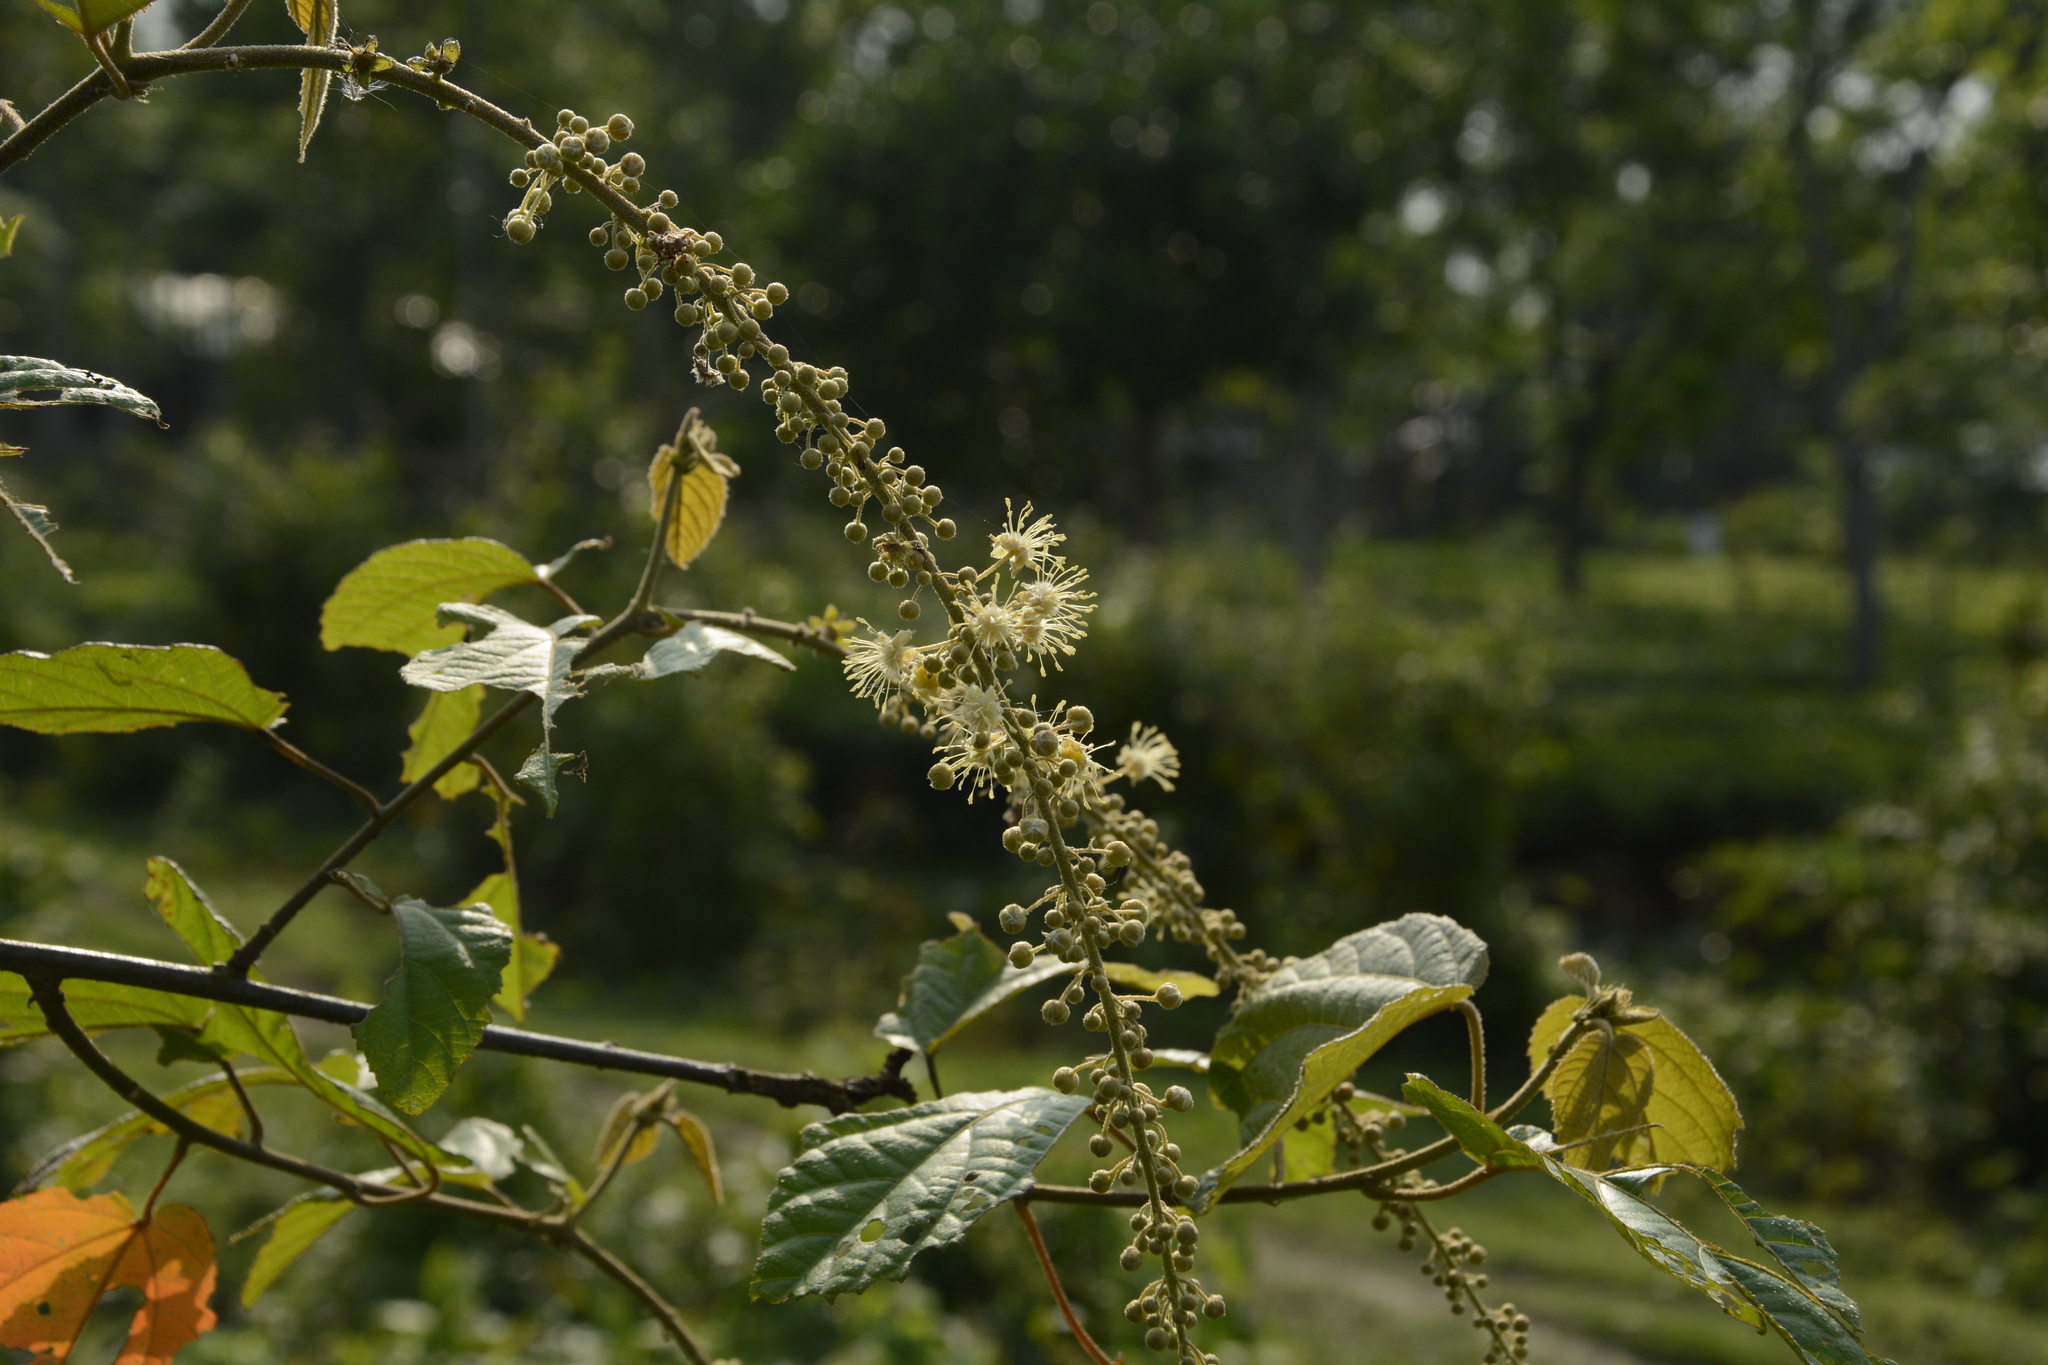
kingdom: Plantae
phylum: Tracheophyta
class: Magnoliopsida
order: Malpighiales
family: Euphorbiaceae
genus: Croton
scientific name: Croton caudatus
